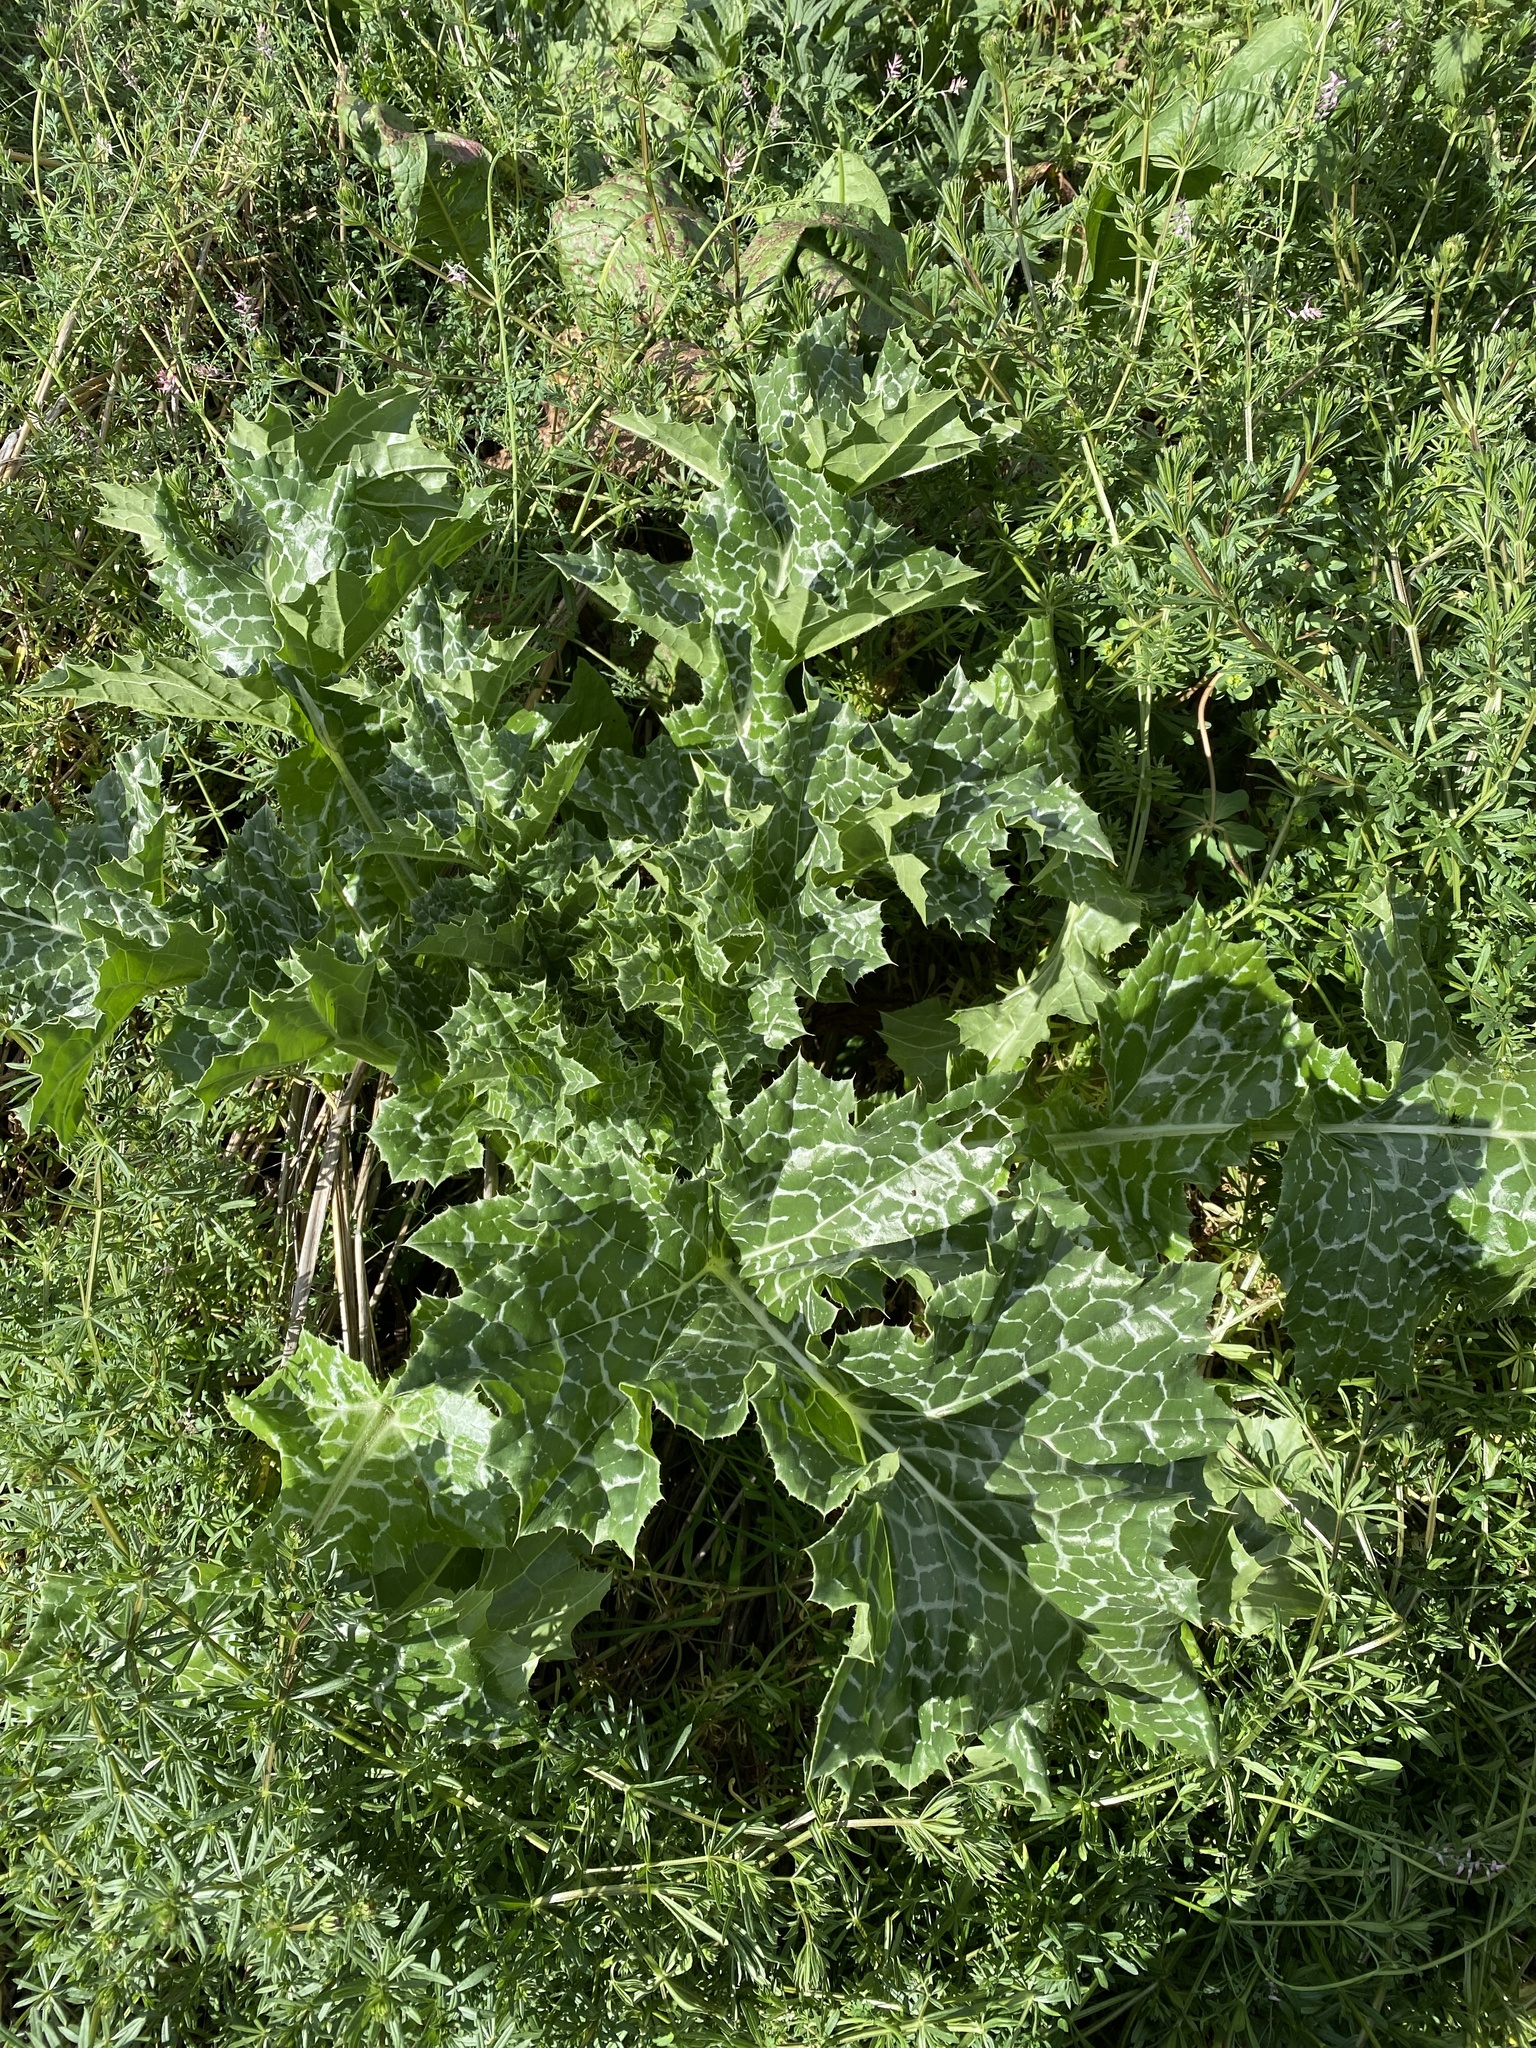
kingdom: Plantae
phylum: Tracheophyta
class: Magnoliopsida
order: Asterales
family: Asteraceae
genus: Silybum
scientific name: Silybum marianum
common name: Milk thistle
